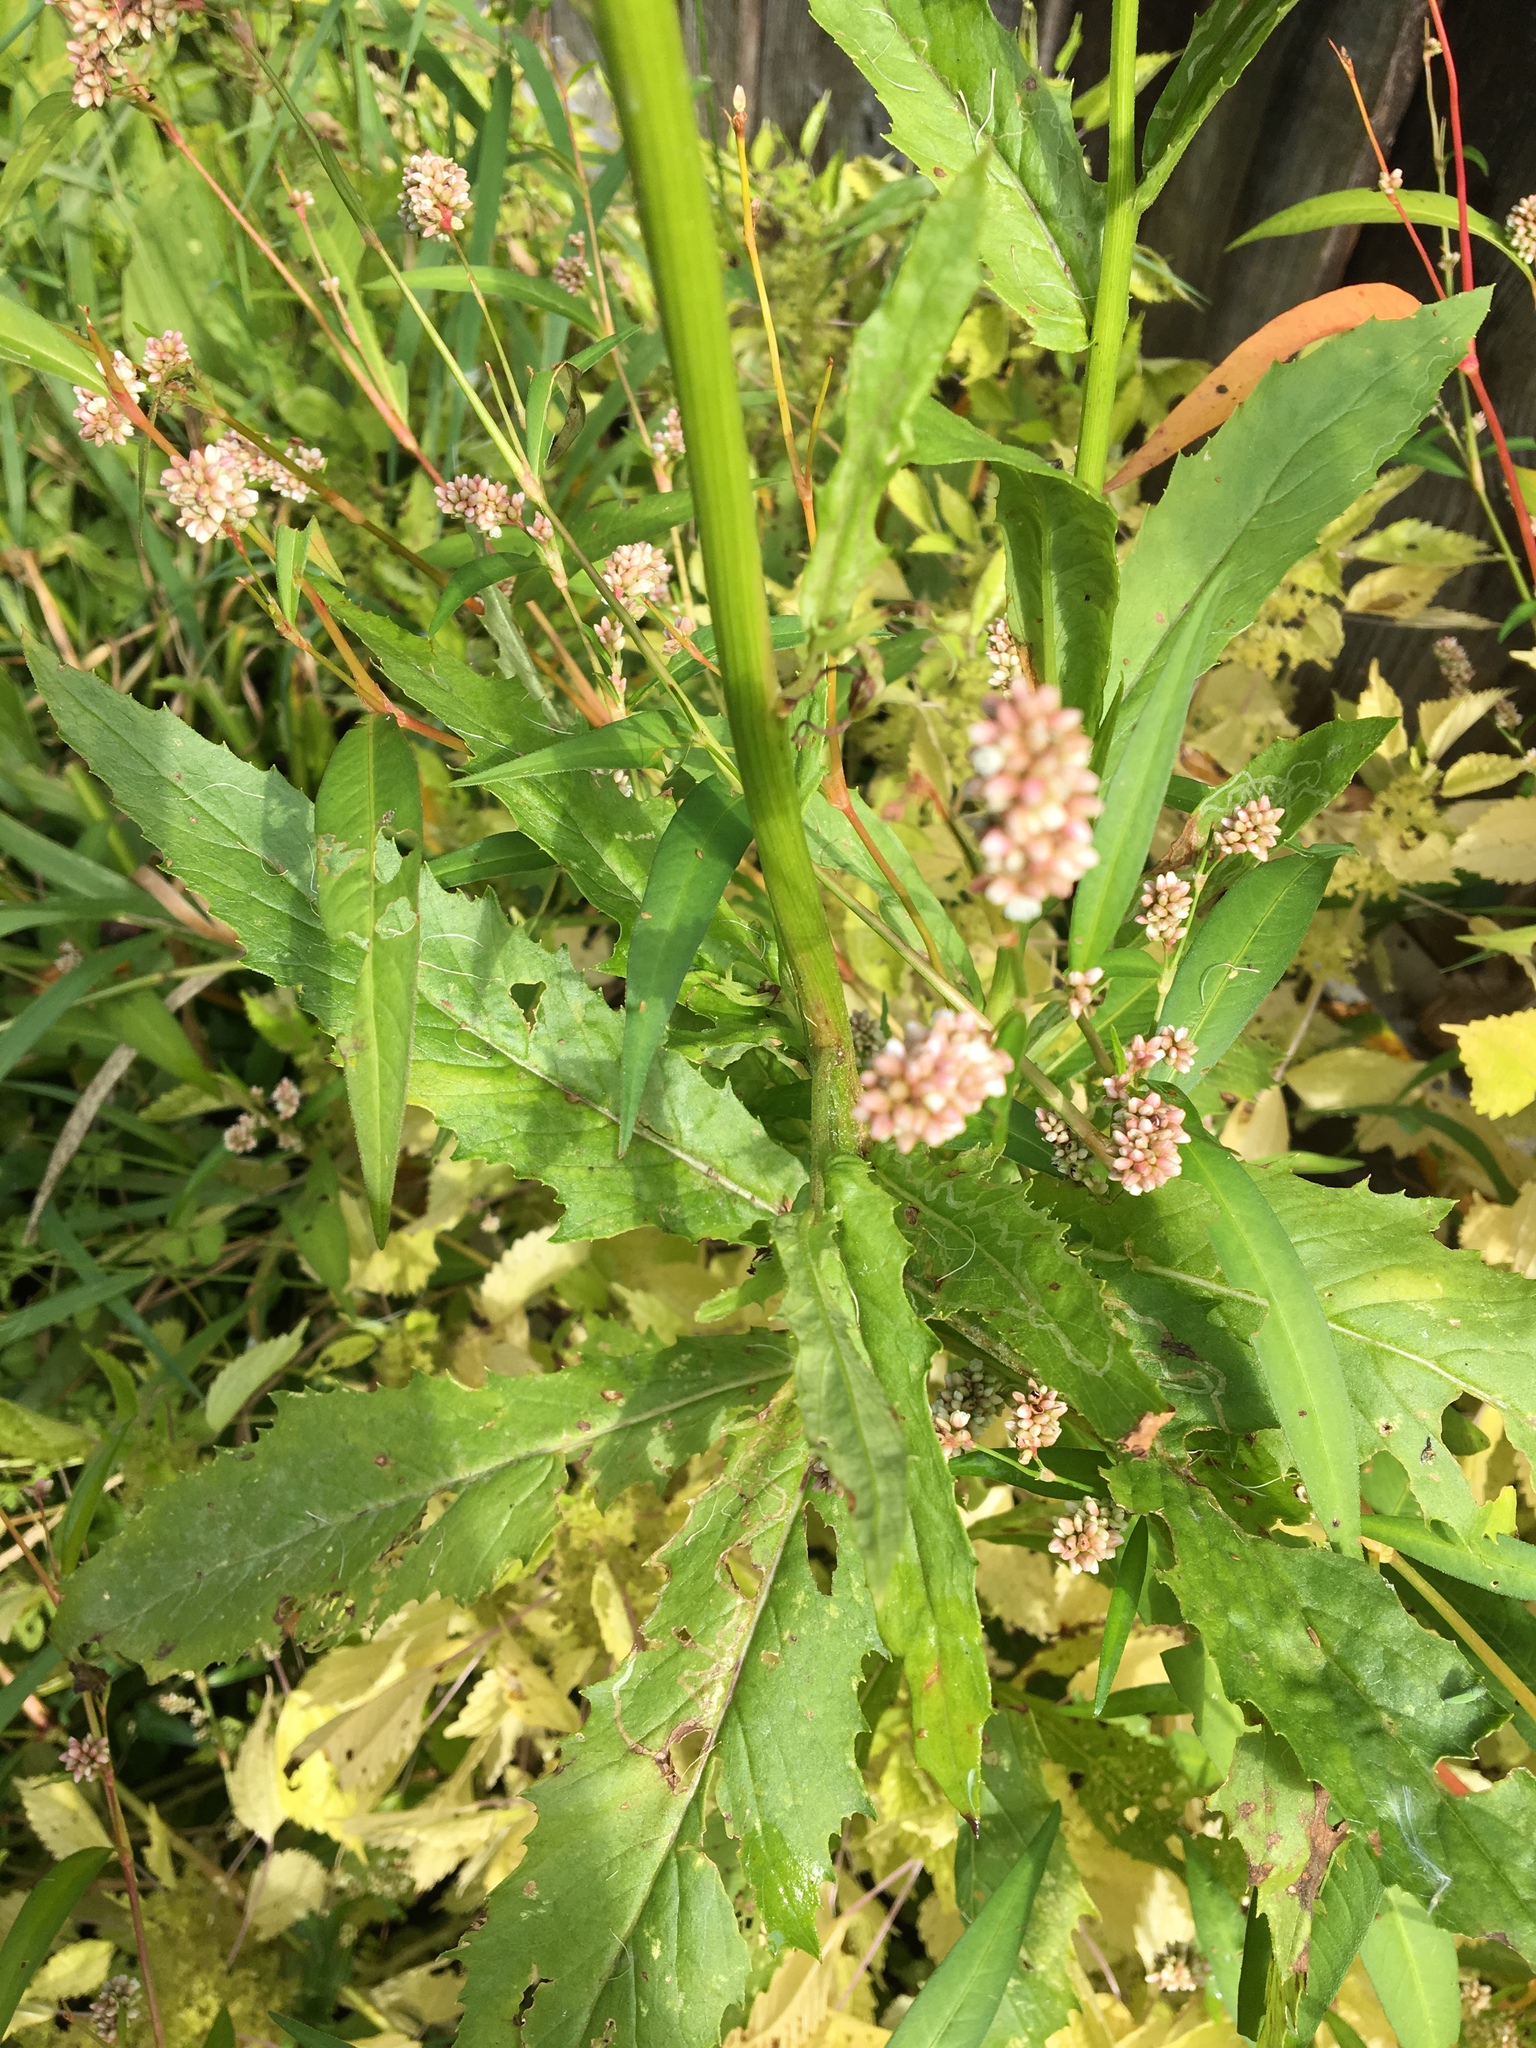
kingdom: Plantae
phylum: Tracheophyta
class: Magnoliopsida
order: Asterales
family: Asteraceae
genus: Erechtites
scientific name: Erechtites hieraciifolius
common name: American burnweed
